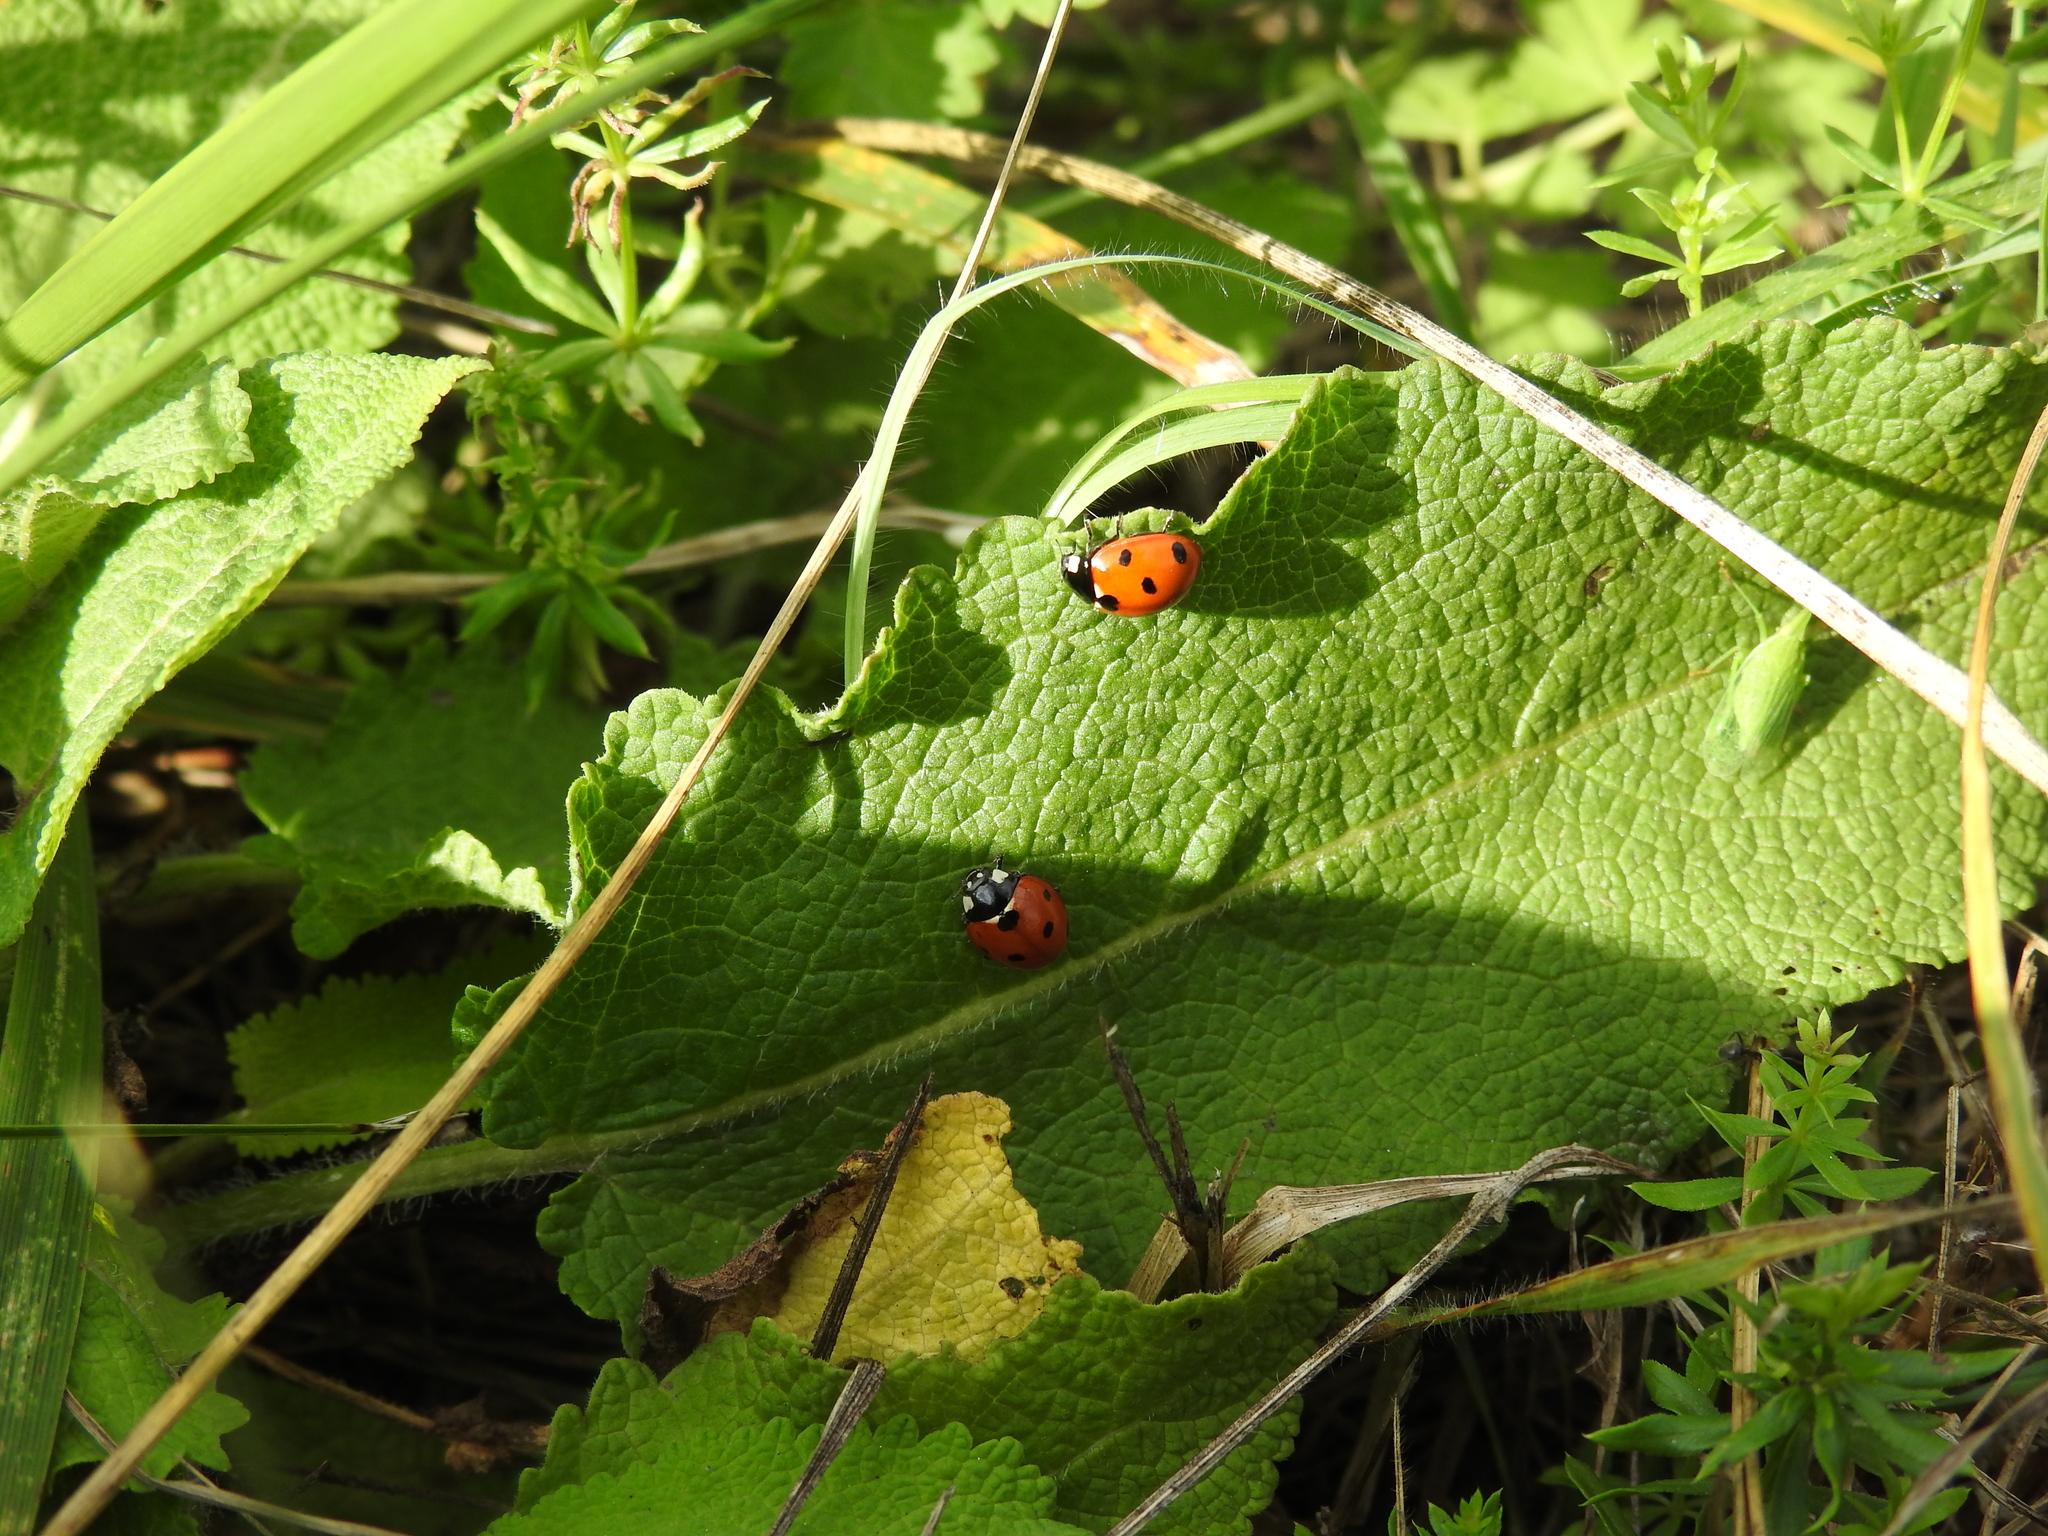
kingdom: Animalia
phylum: Arthropoda
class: Insecta
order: Coleoptera
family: Coccinellidae
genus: Coccinella
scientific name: Coccinella septempunctata
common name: Sevenspotted lady beetle
